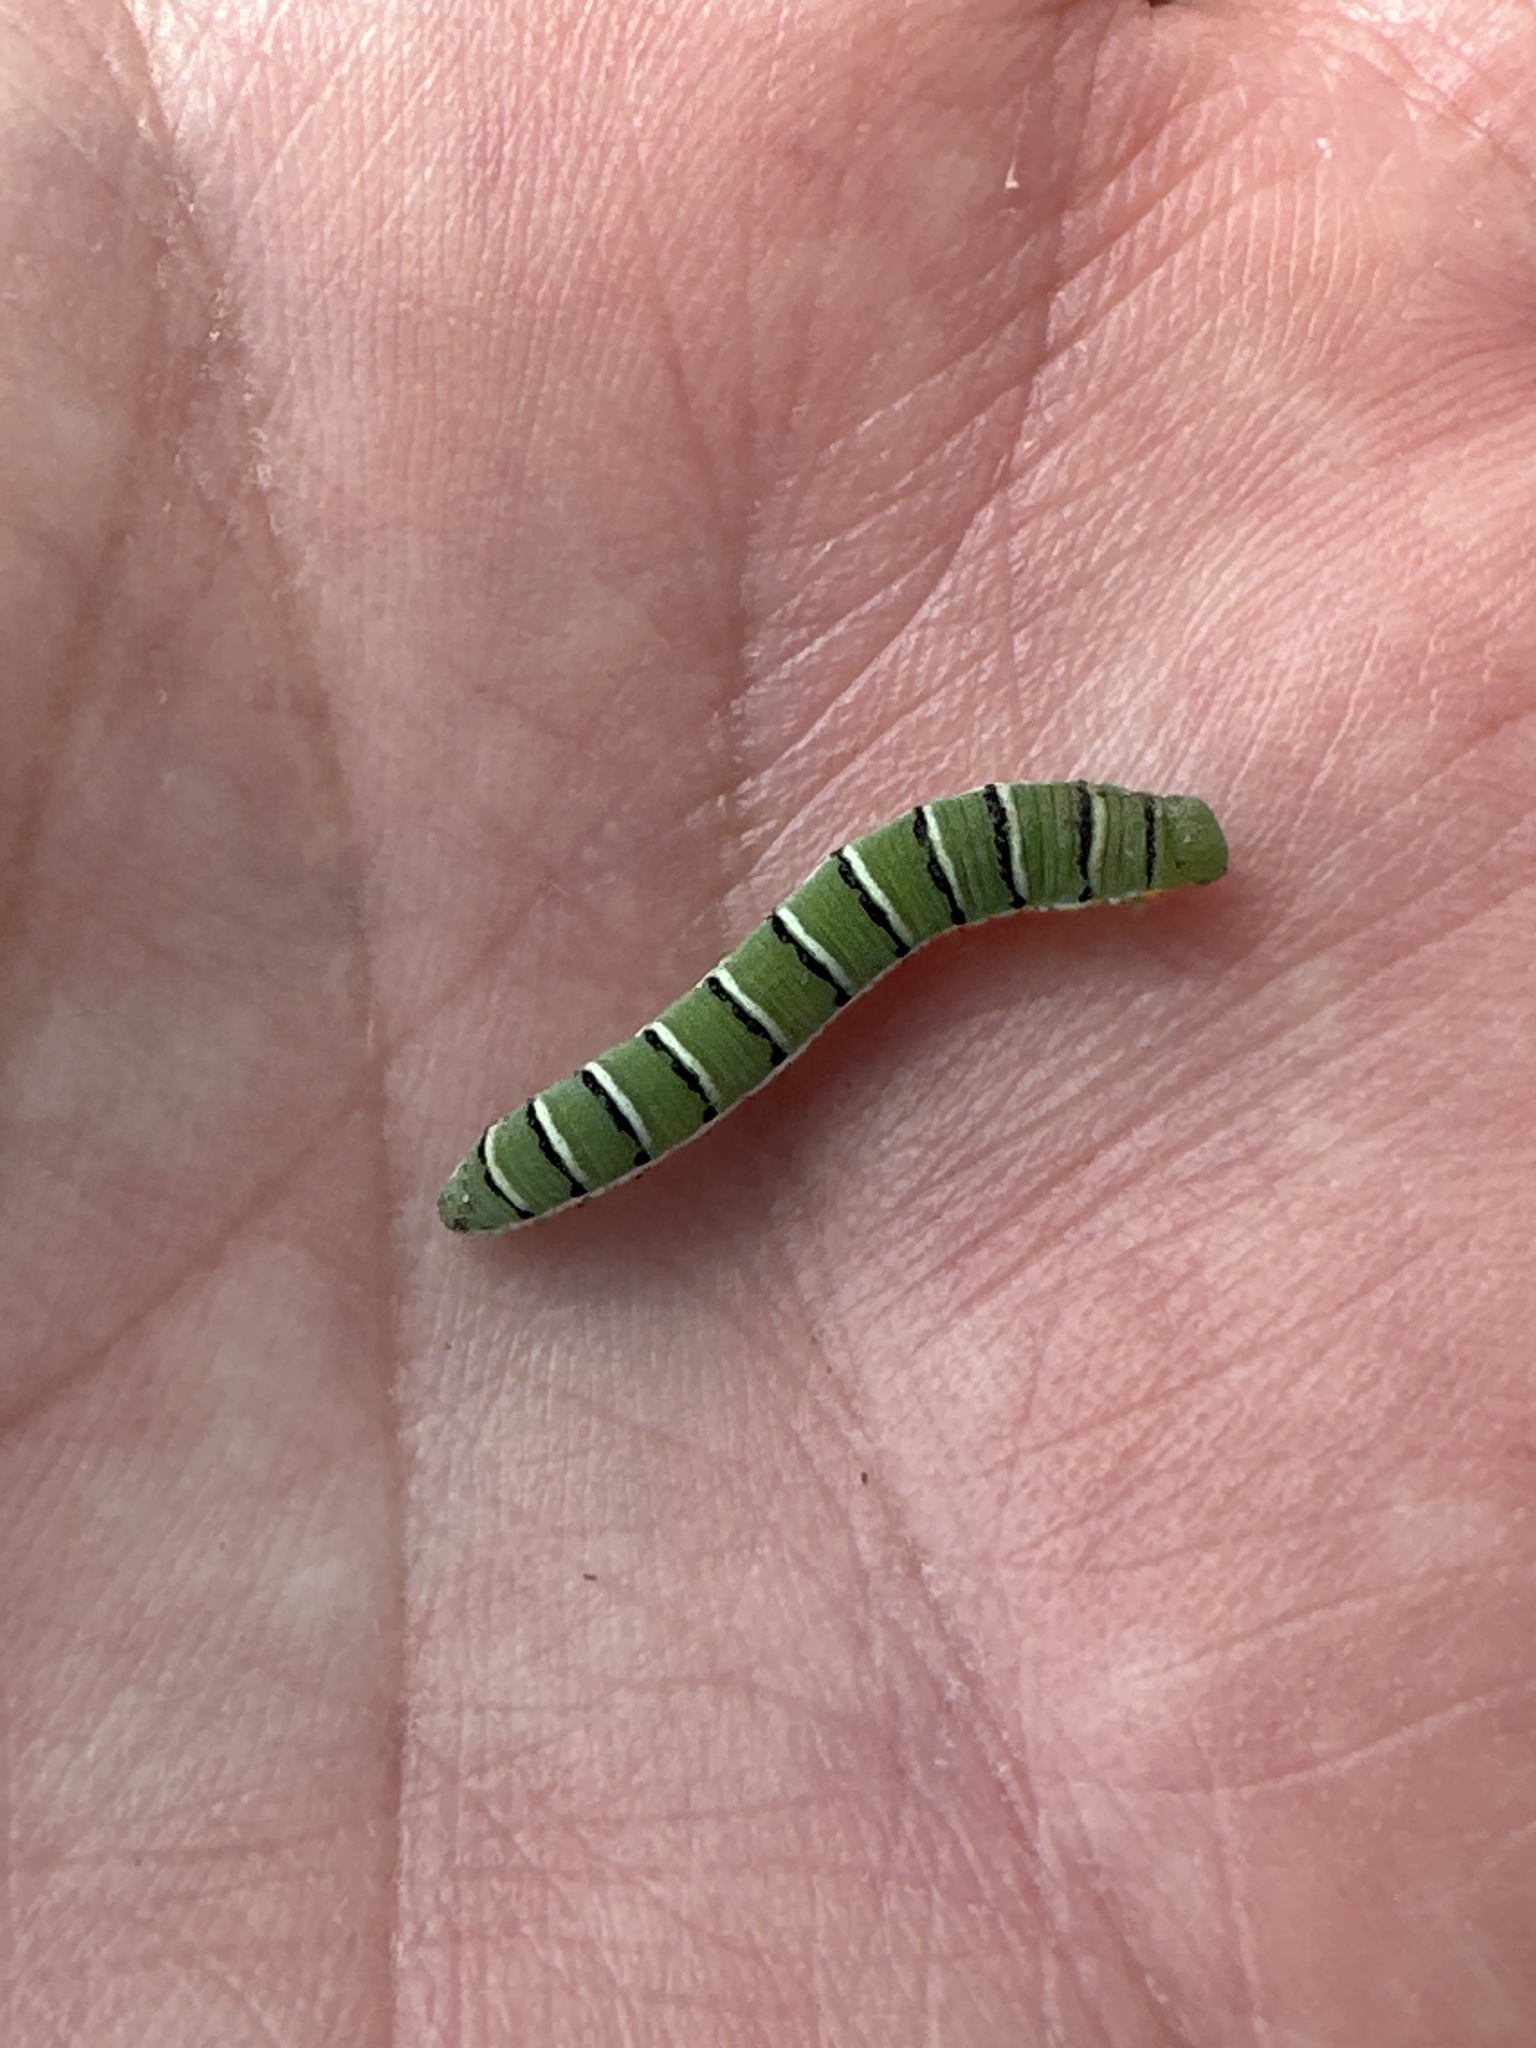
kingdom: Animalia
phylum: Arthropoda
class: Insecta
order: Lepidoptera
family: Pieridae
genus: Zerene
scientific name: Zerene cesonia
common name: Southern dogface
